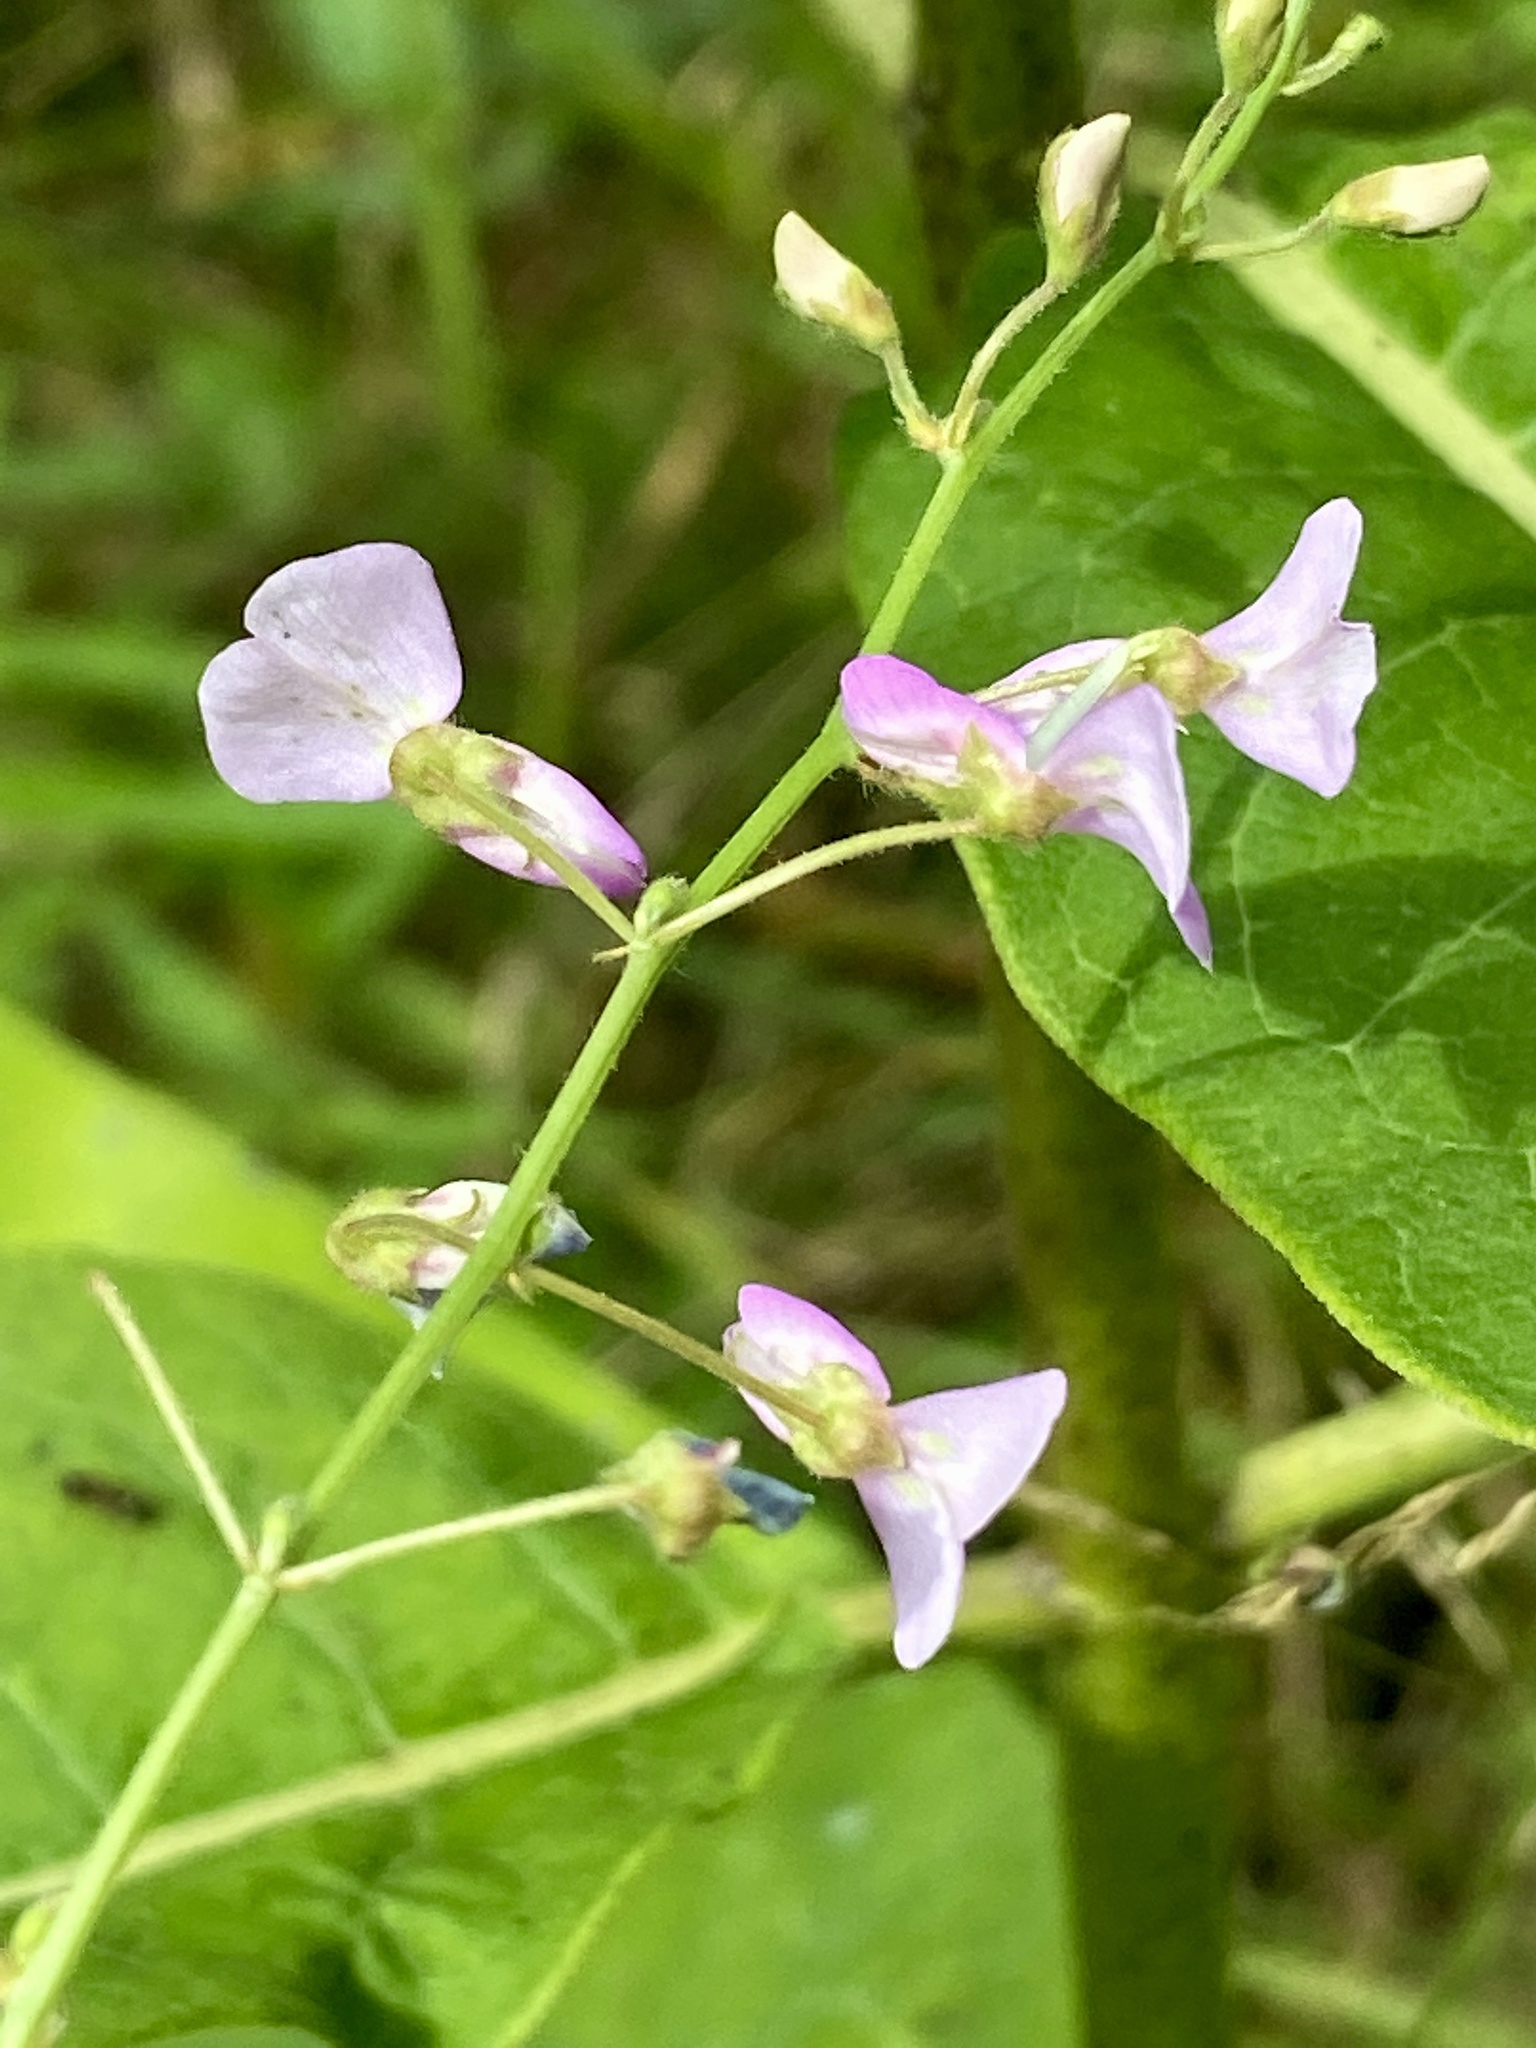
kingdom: Plantae
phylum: Tracheophyta
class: Magnoliopsida
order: Fabales
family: Fabaceae
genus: Desmodium
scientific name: Desmodium
